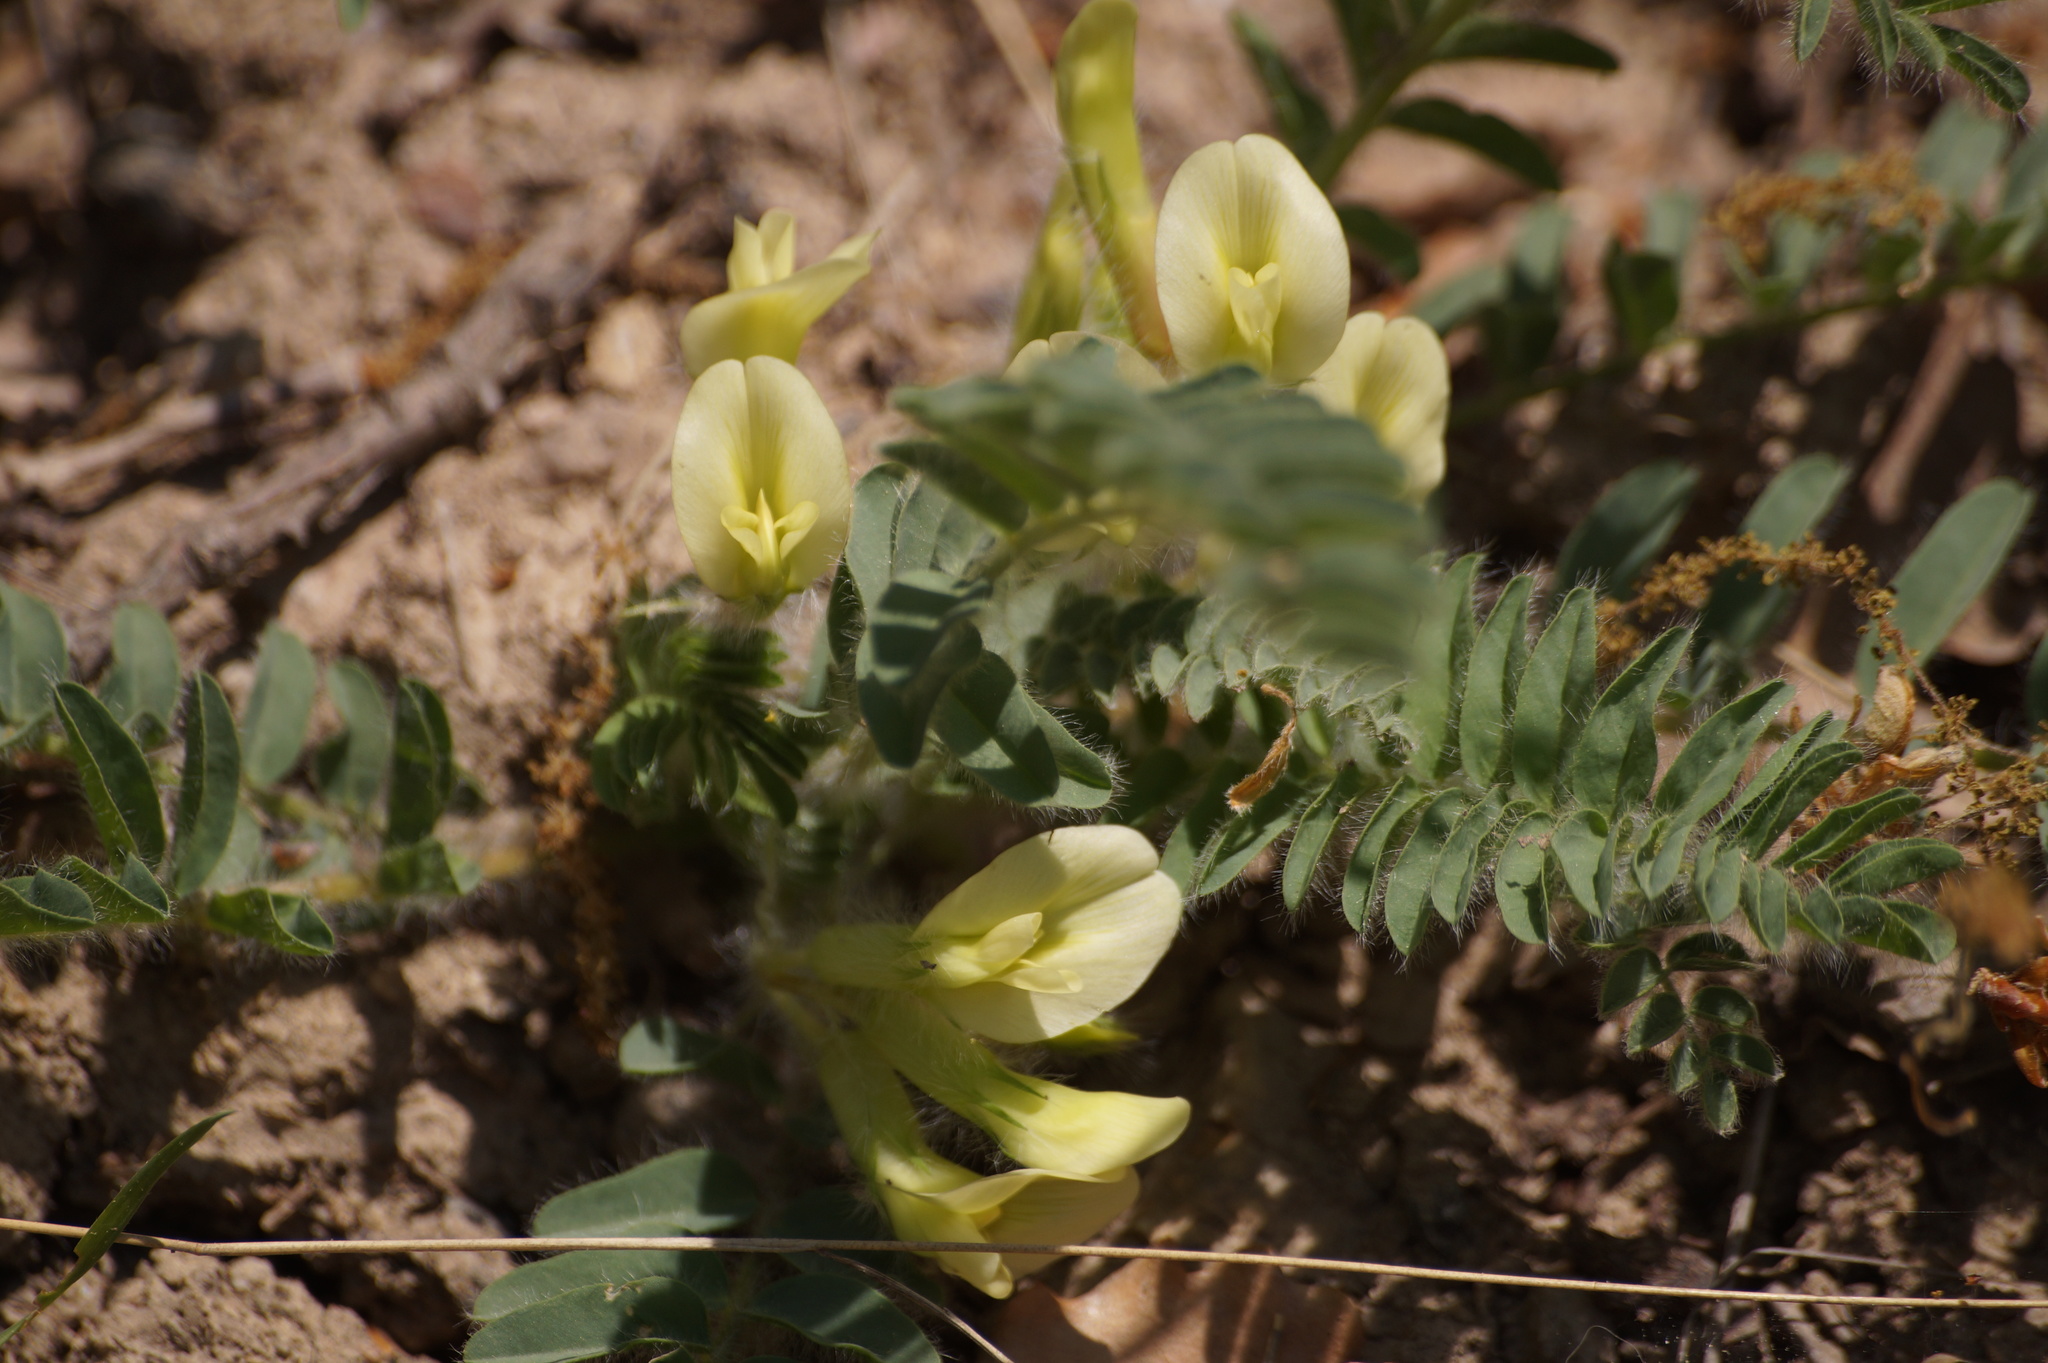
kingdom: Plantae
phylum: Tracheophyta
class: Magnoliopsida
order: Fabales
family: Fabaceae
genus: Astragalus
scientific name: Astragalus utriger
